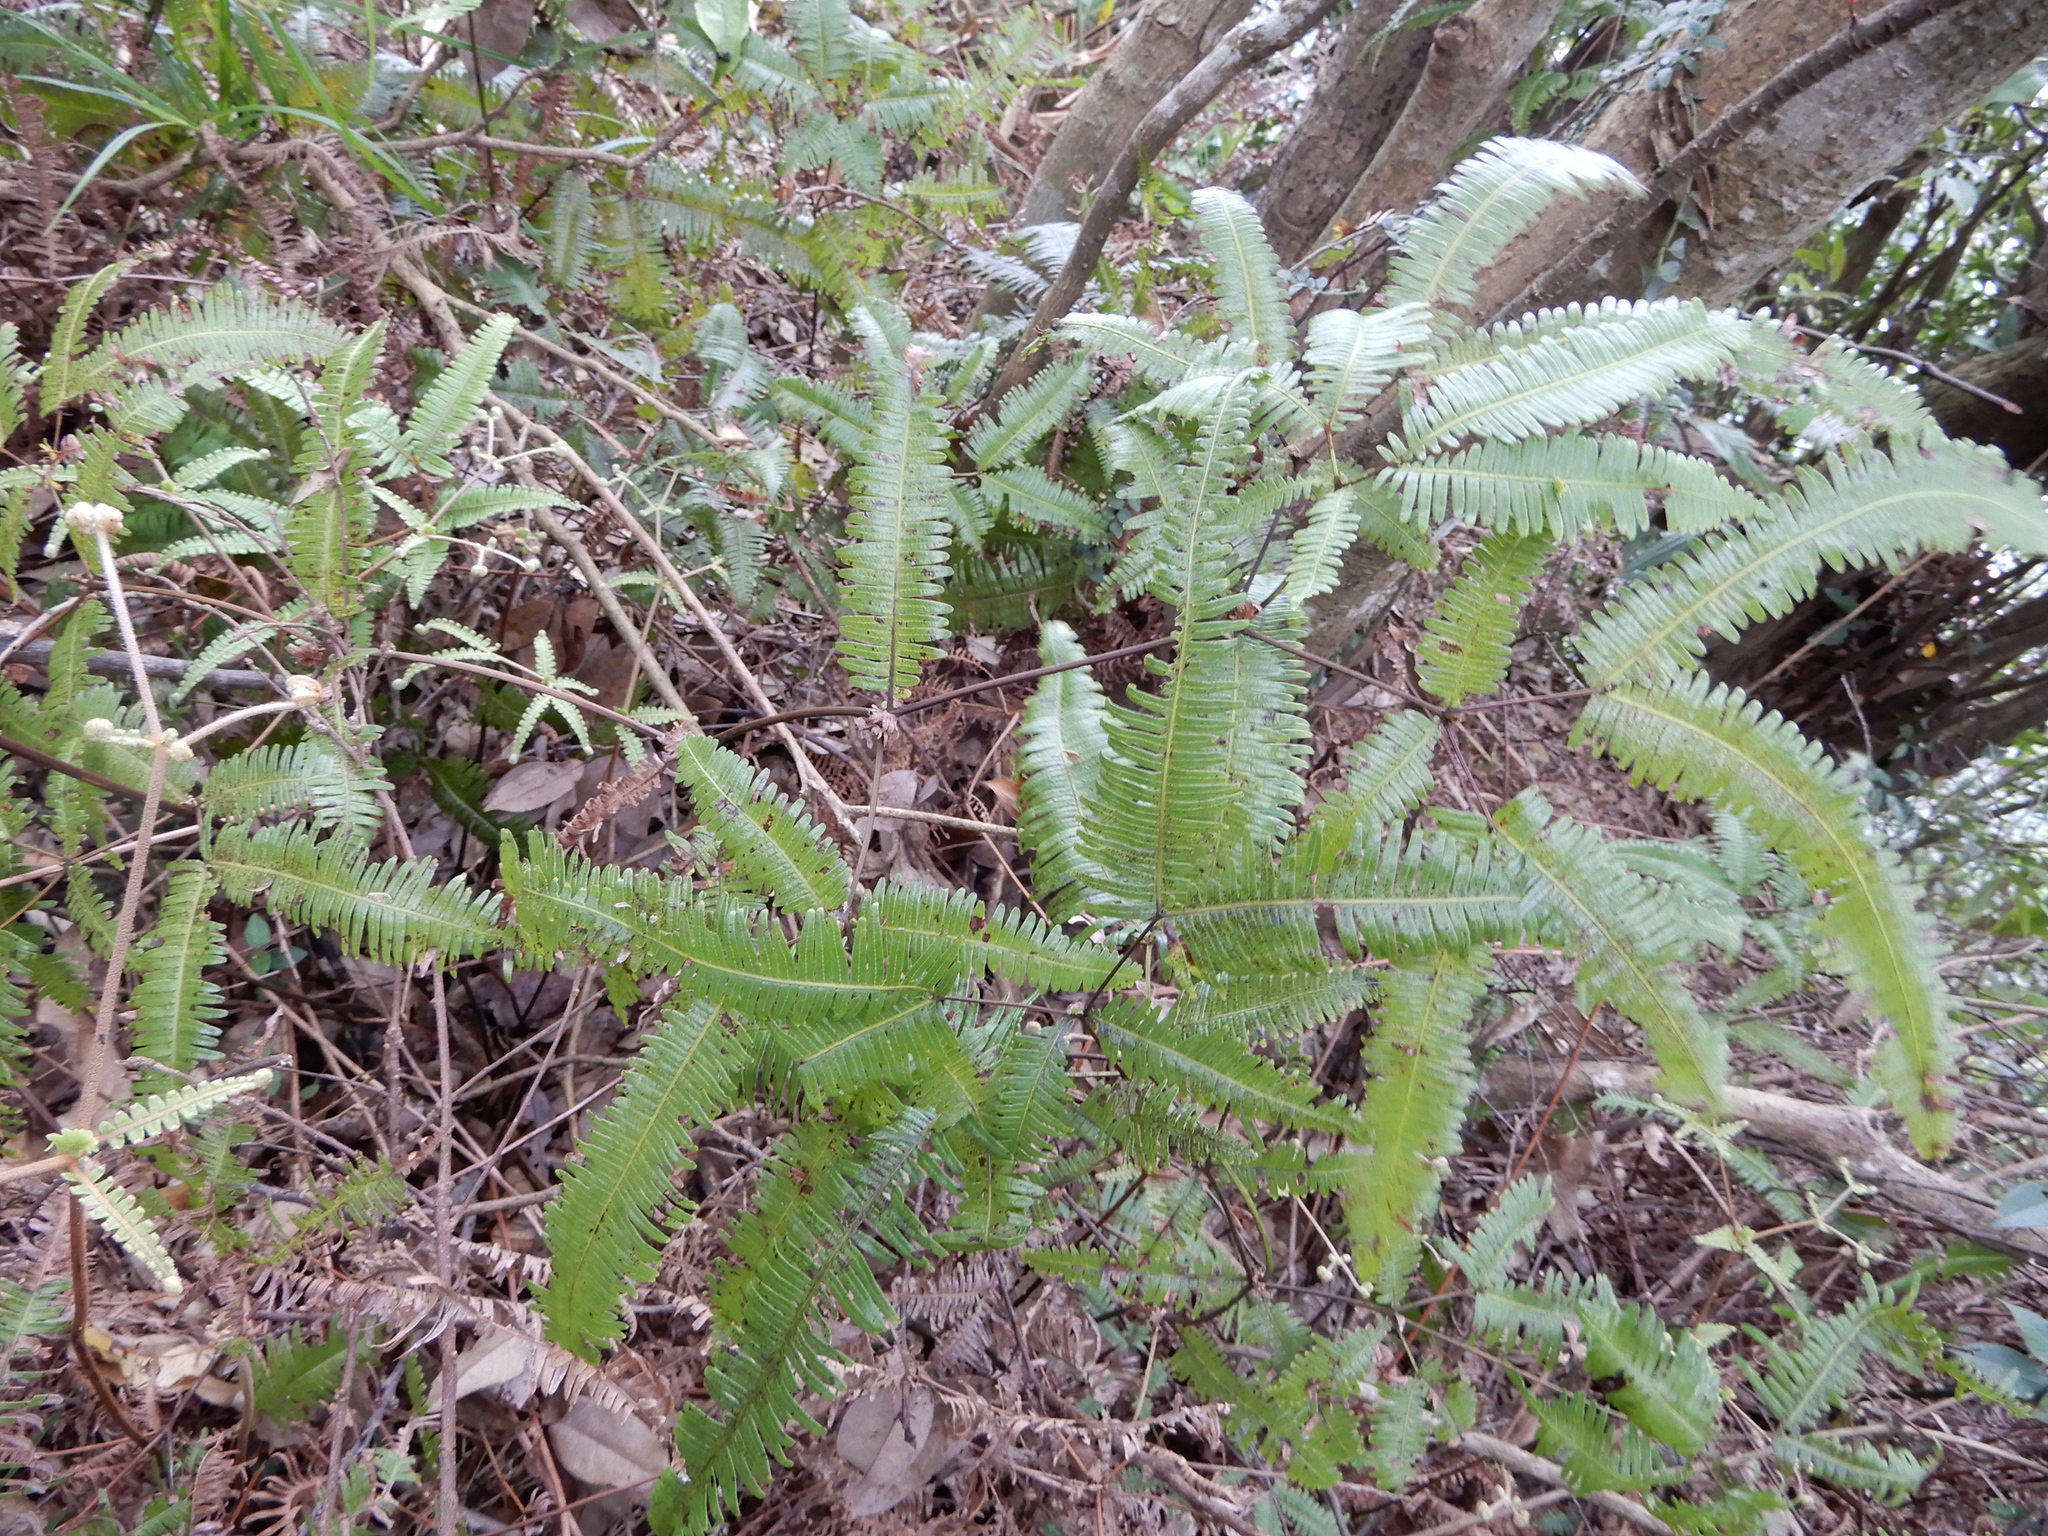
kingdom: Plantae
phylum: Tracheophyta
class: Polypodiopsida
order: Gleicheniales
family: Gleicheniaceae
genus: Dicranopteris
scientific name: Dicranopteris linearis
